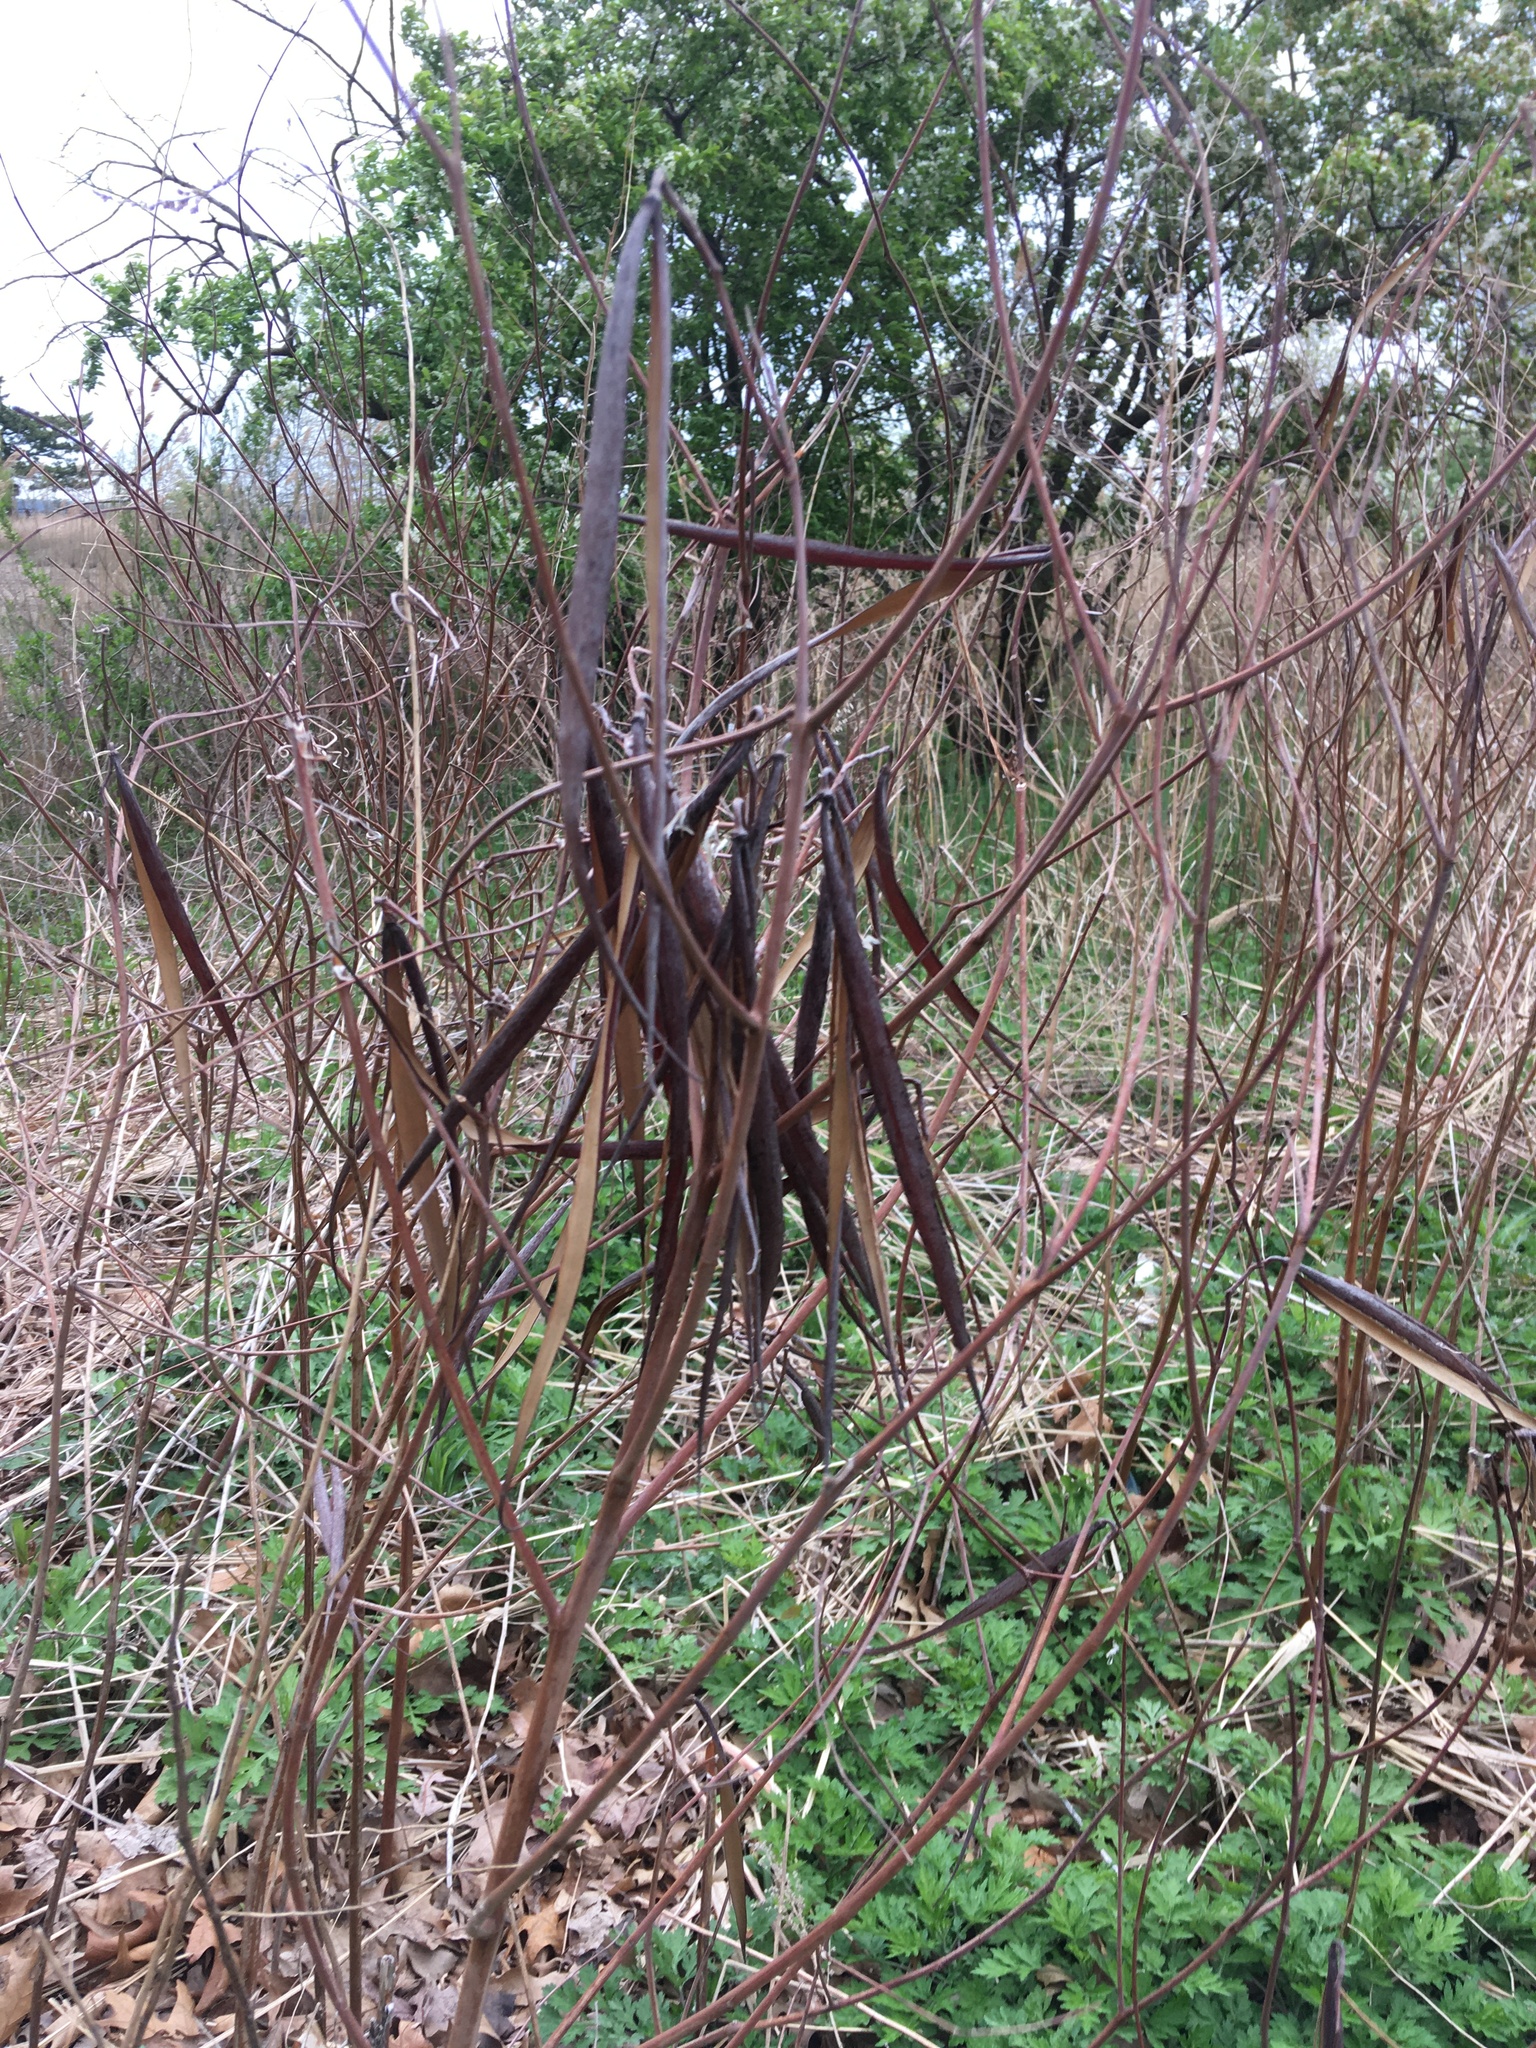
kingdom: Plantae
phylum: Tracheophyta
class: Magnoliopsida
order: Gentianales
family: Apocynaceae
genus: Apocynum
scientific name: Apocynum cannabinum
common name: Hemp dogbane
